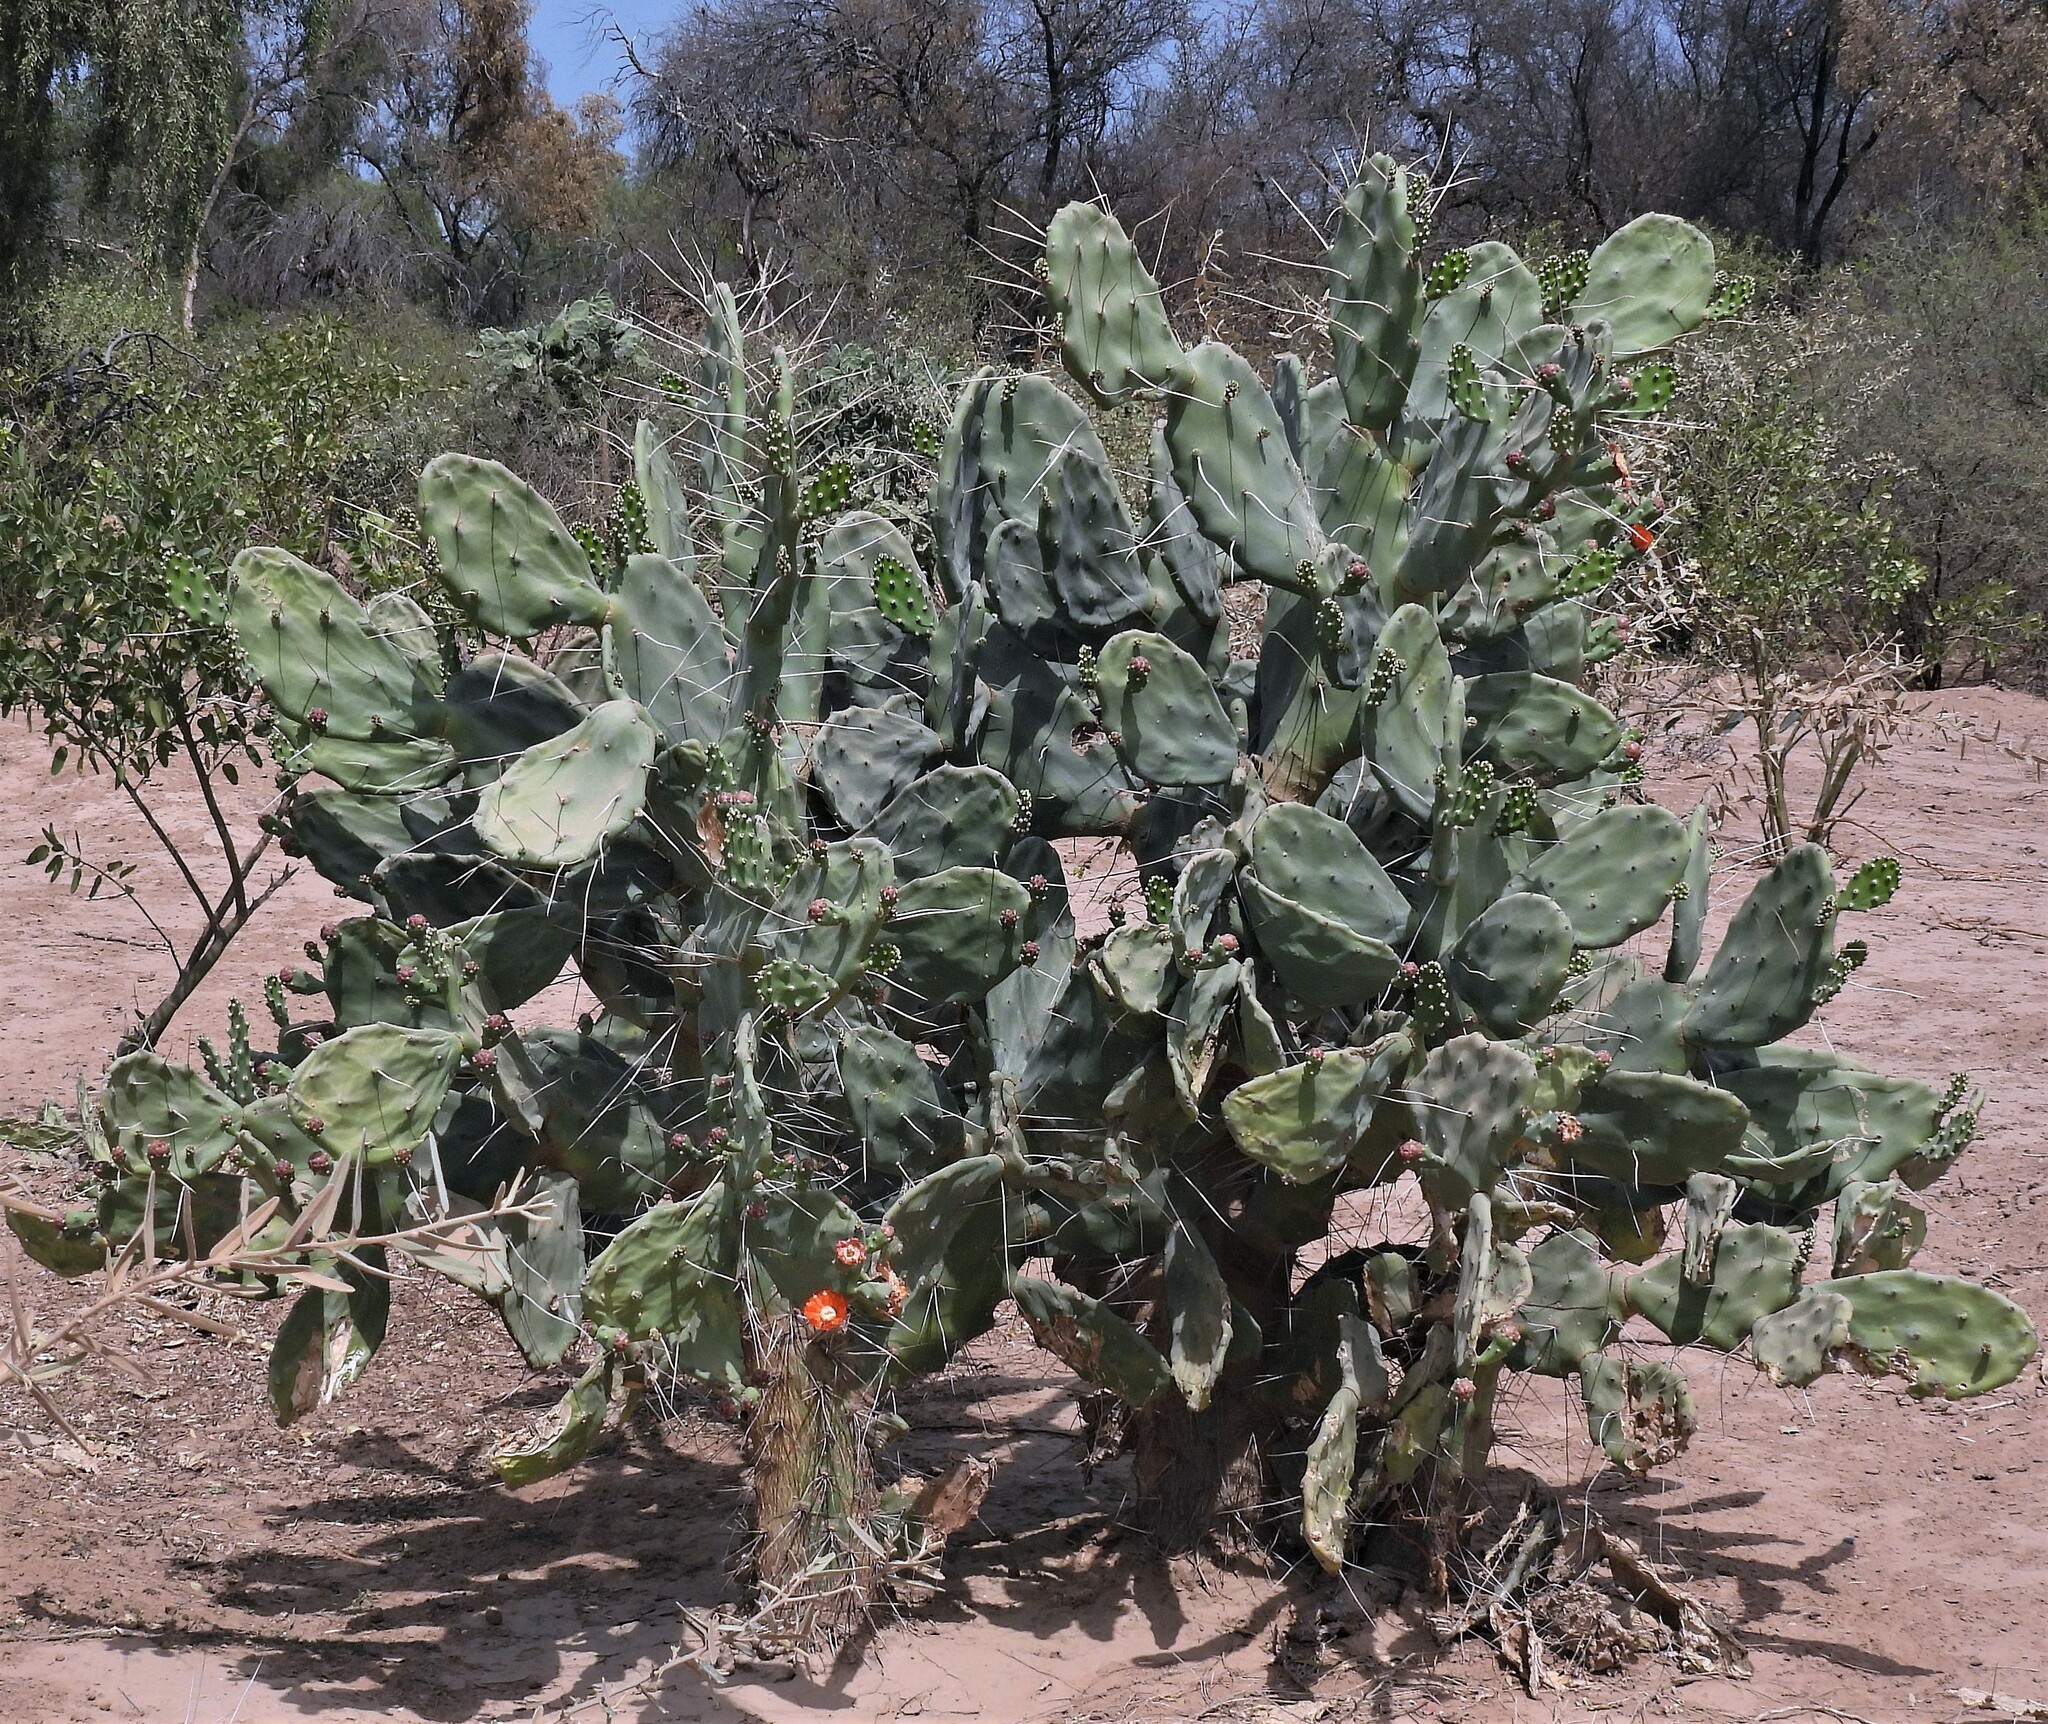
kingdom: Plantae
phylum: Tracheophyta
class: Magnoliopsida
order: Caryophyllales
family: Cactaceae
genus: Opuntia
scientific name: Opuntia quimilo
